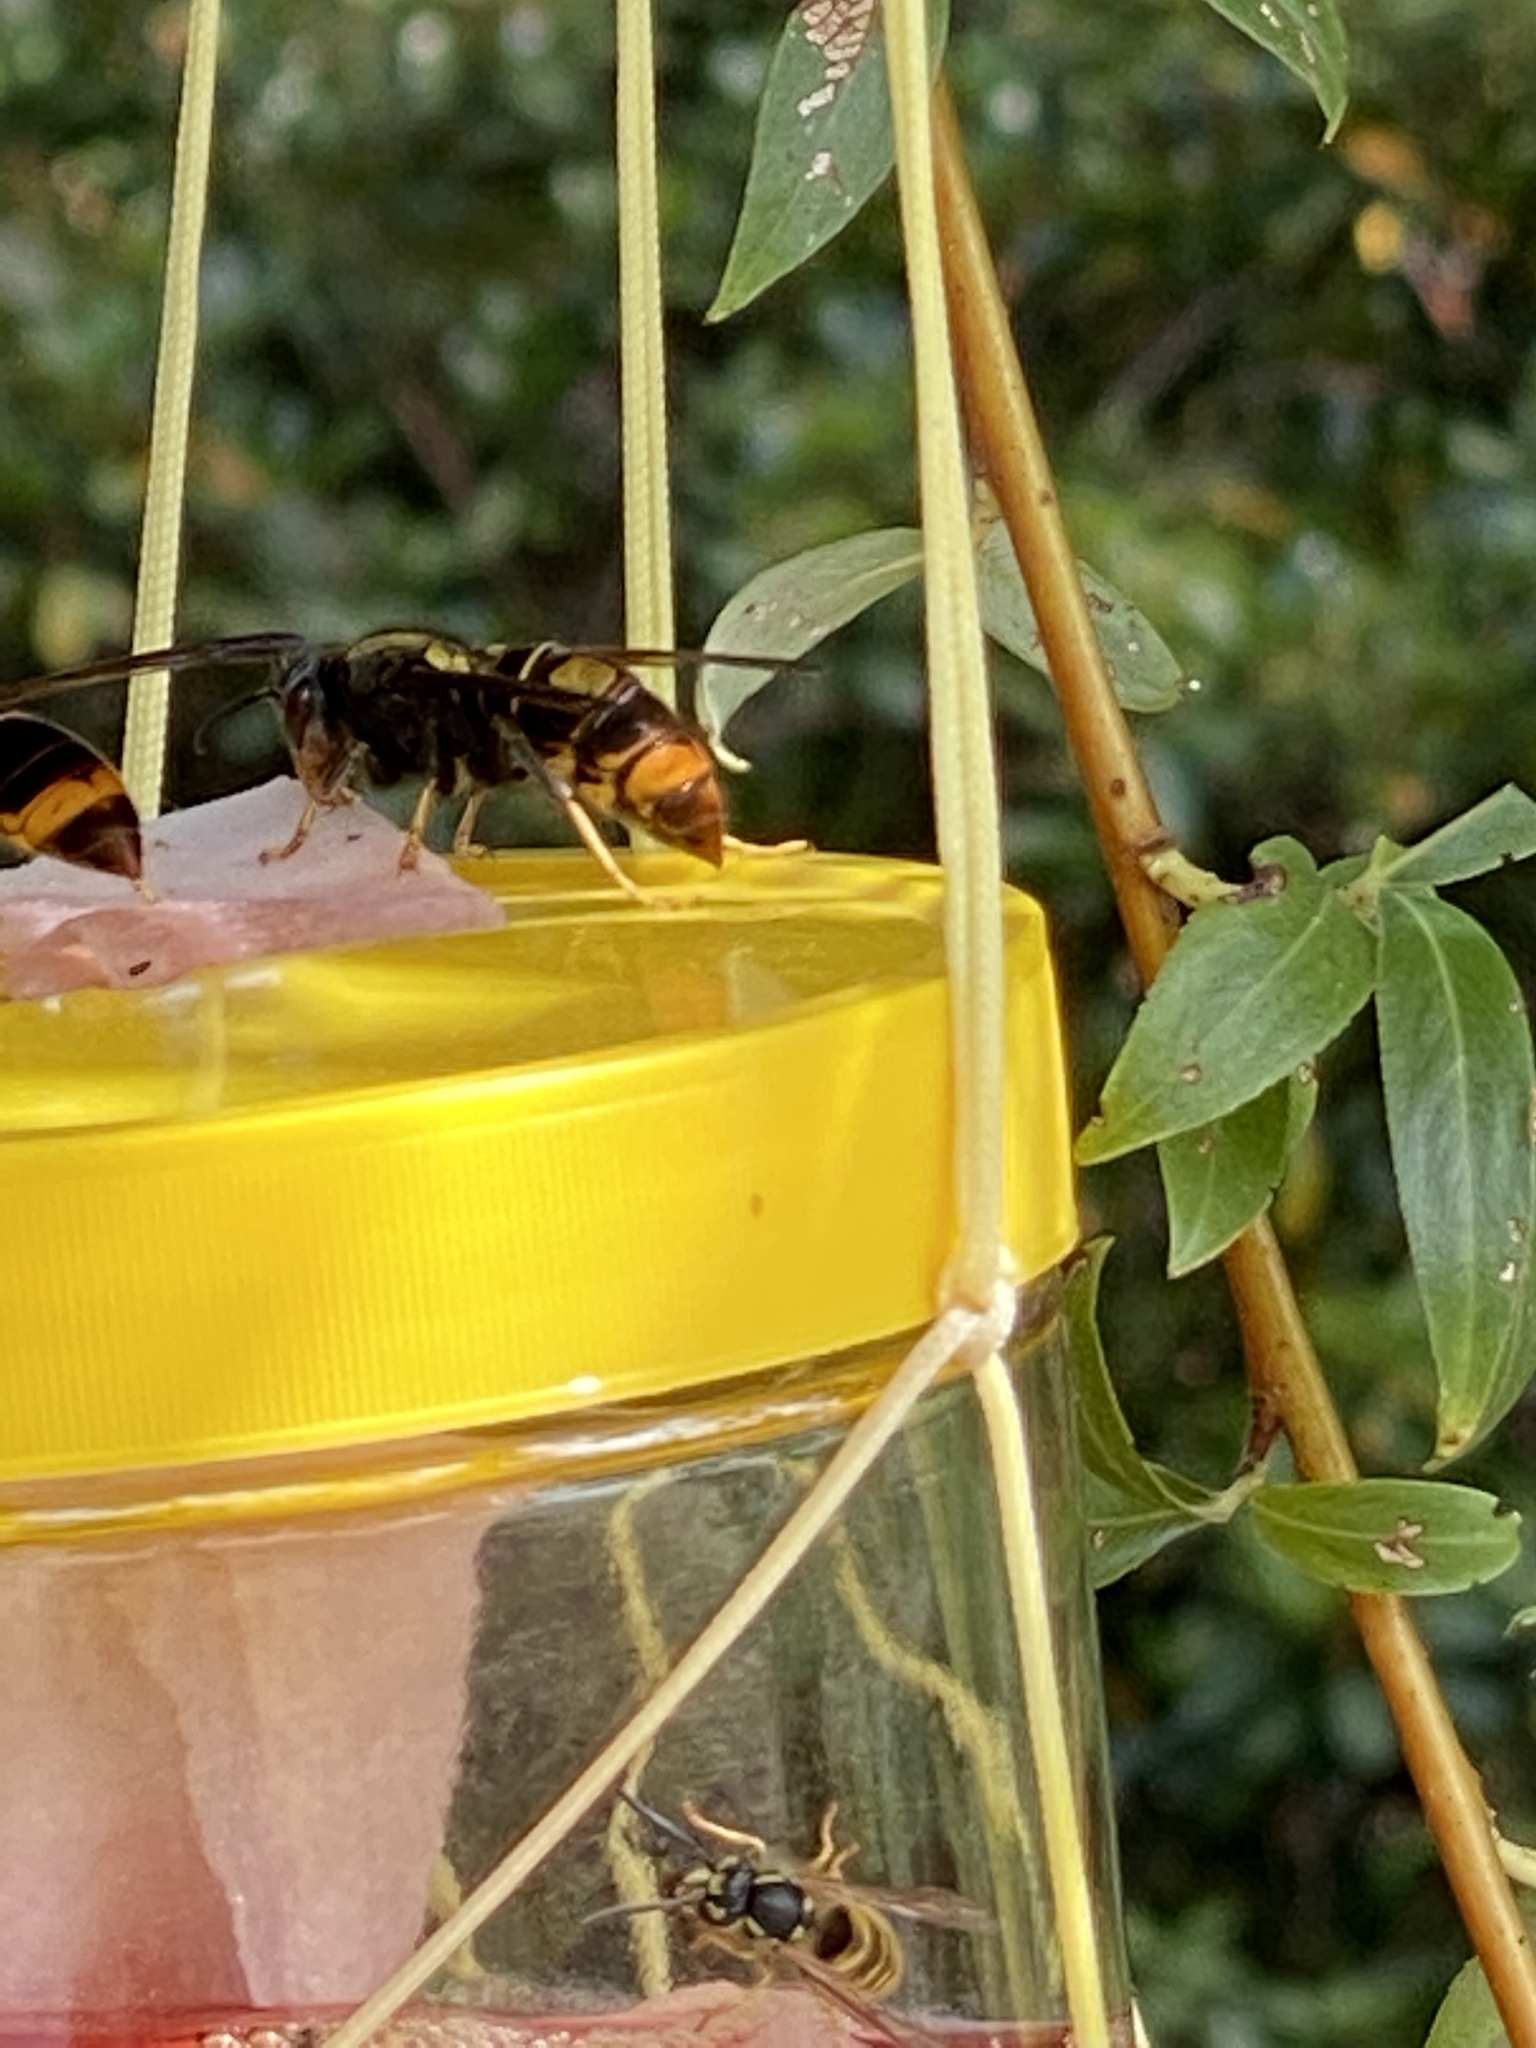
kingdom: Animalia
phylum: Arthropoda
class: Insecta
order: Hymenoptera
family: Vespidae
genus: Vespa
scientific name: Vespa velutina
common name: Asian hornet
